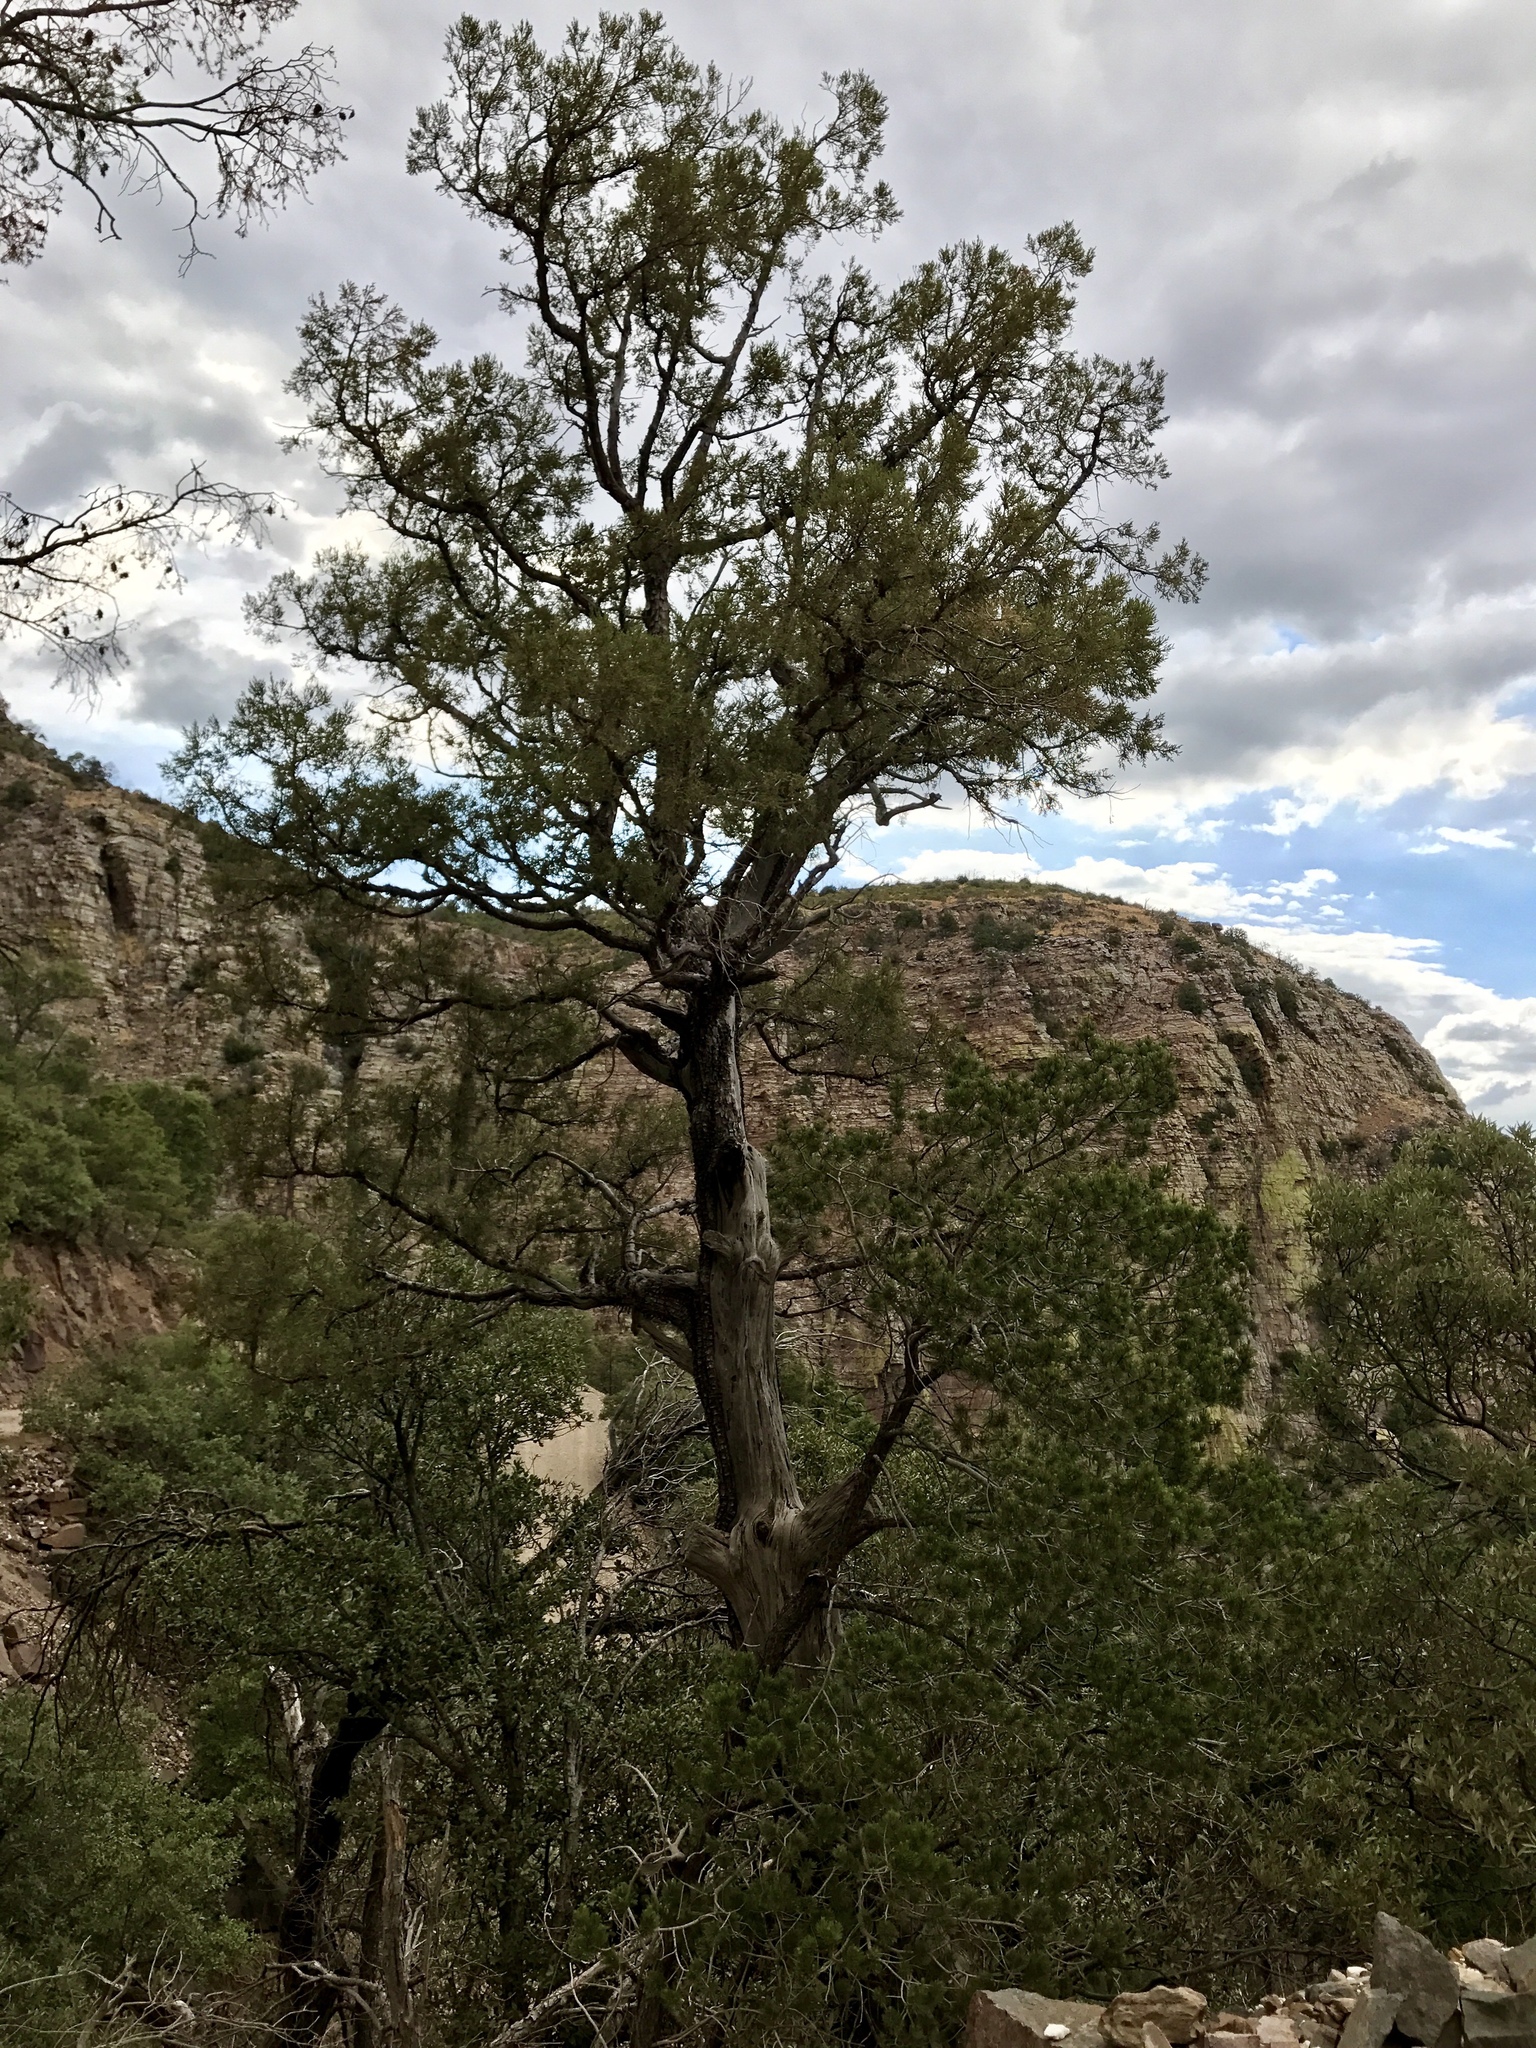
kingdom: Plantae
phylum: Tracheophyta
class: Pinopsida
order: Pinales
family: Cupressaceae
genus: Juniperus
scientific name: Juniperus deppeana
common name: Alligator juniper
